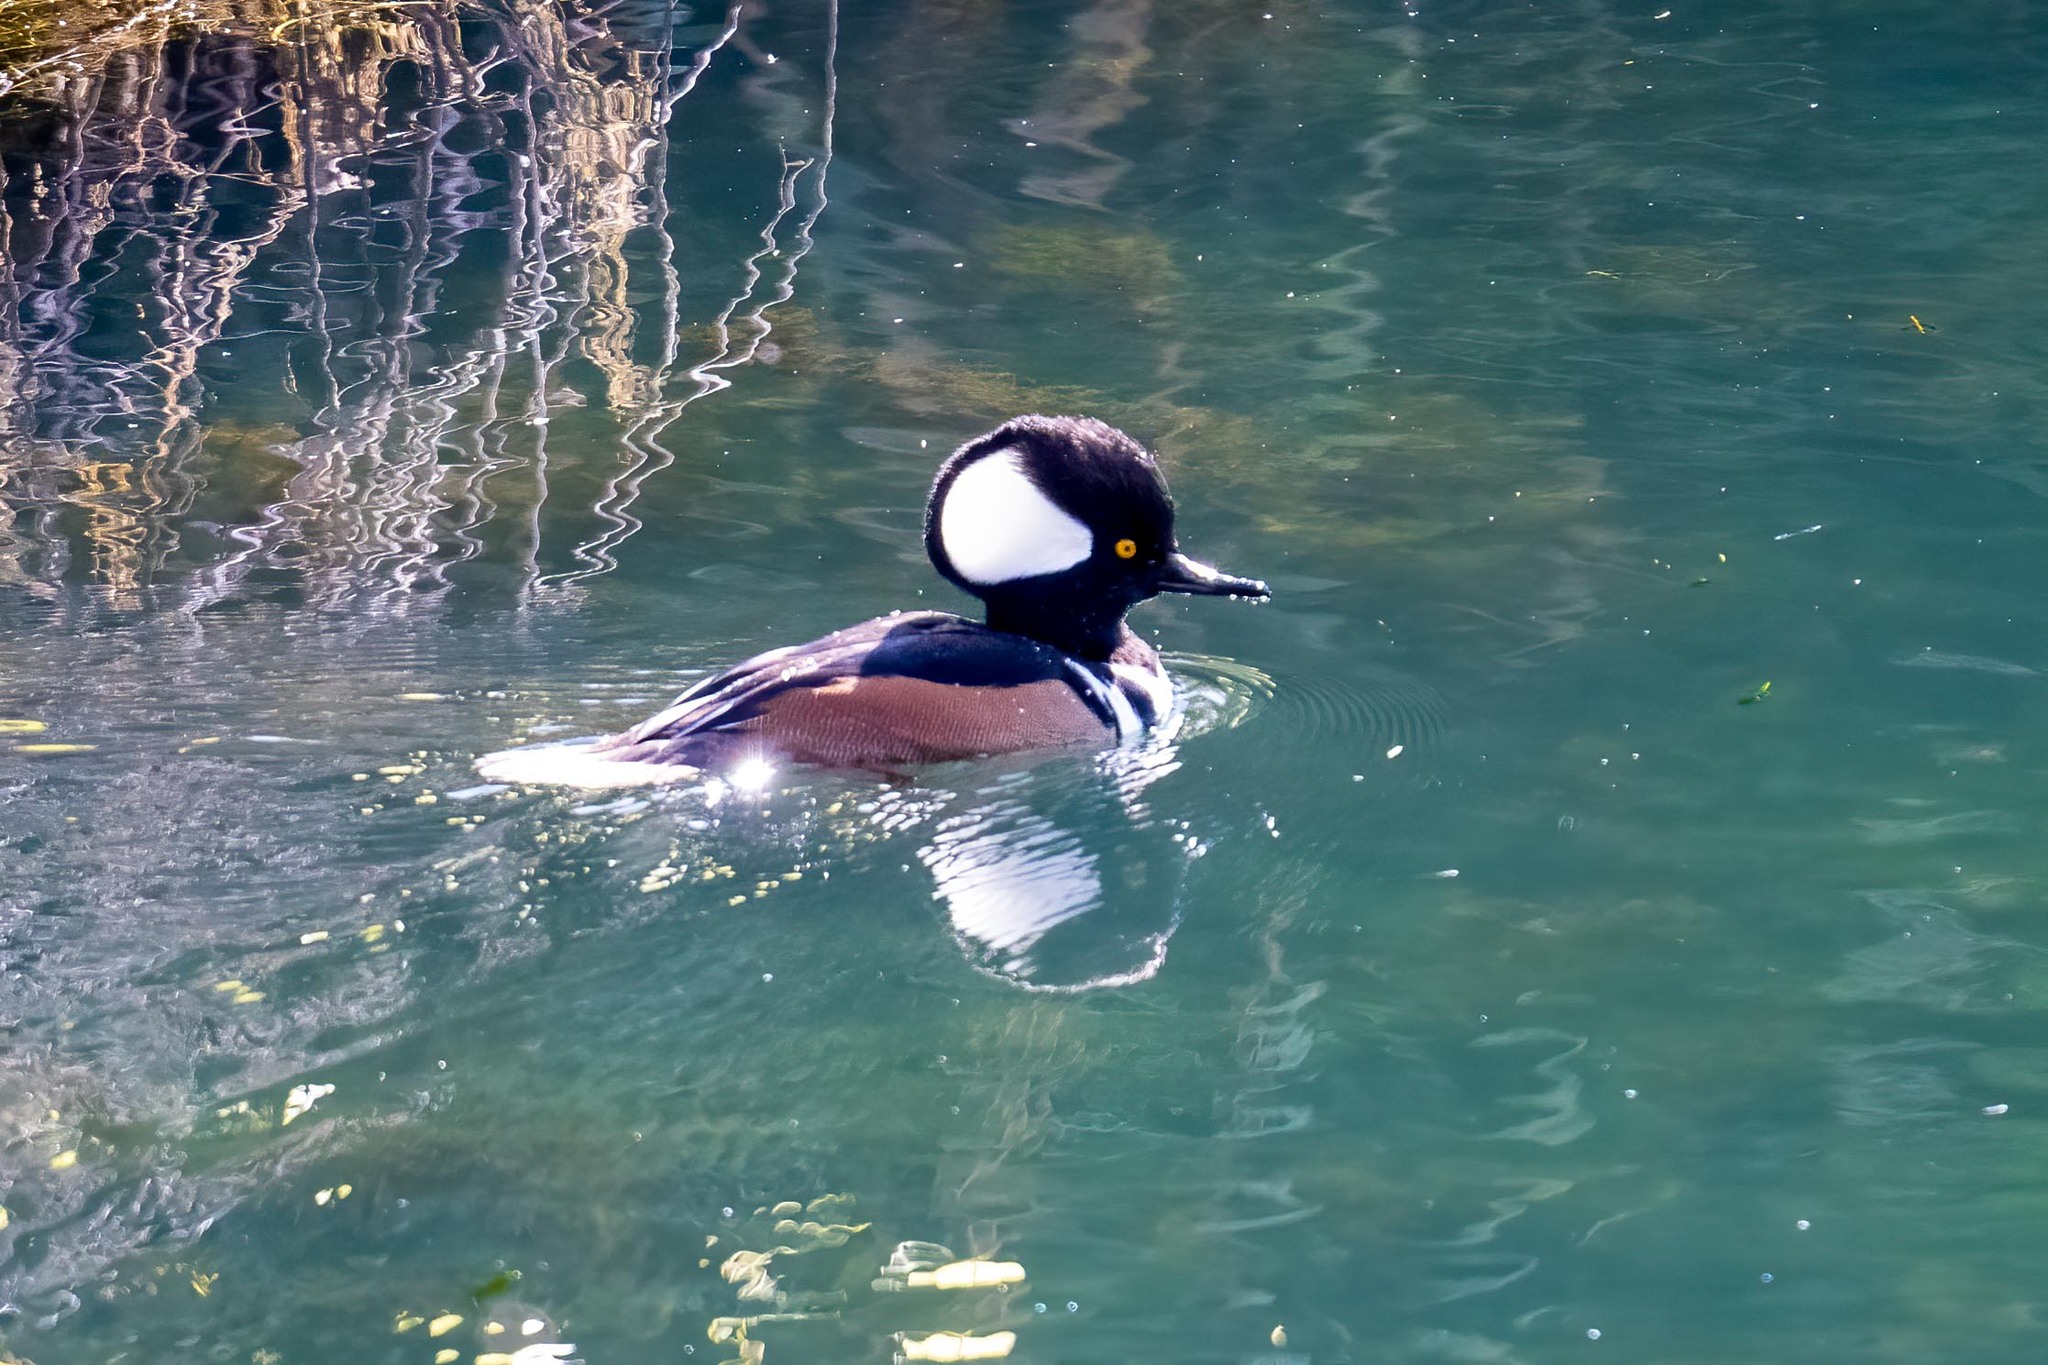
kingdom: Animalia
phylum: Chordata
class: Aves
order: Anseriformes
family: Anatidae
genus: Lophodytes
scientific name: Lophodytes cucullatus
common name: Hooded merganser
